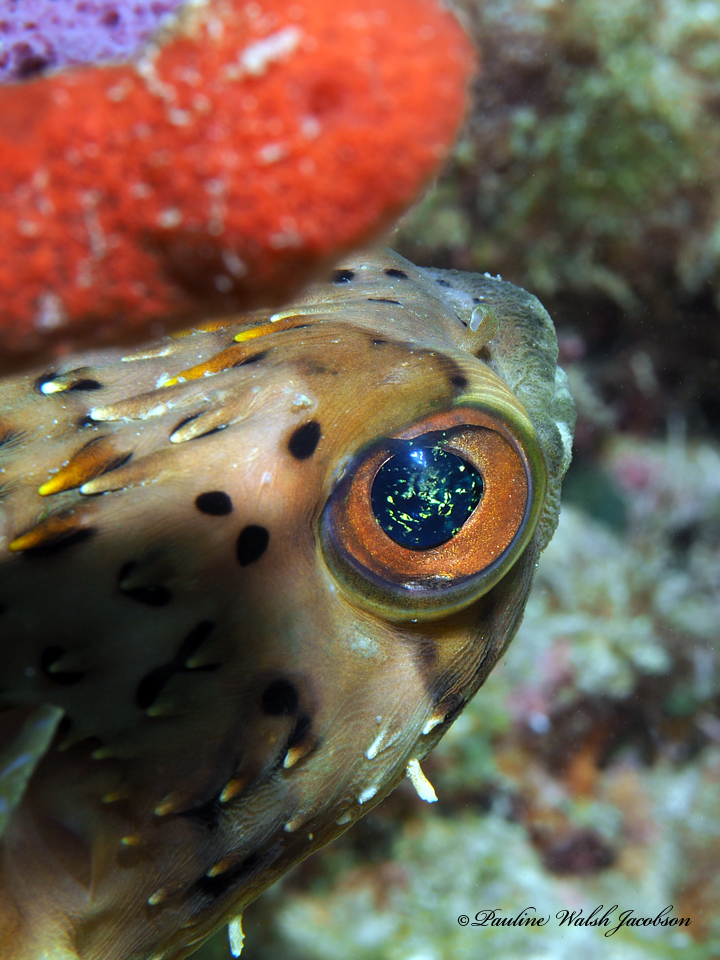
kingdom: Animalia
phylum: Chordata
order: Tetraodontiformes
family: Diodontidae
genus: Diodon
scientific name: Diodon holocanthus
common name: Balloonfish
